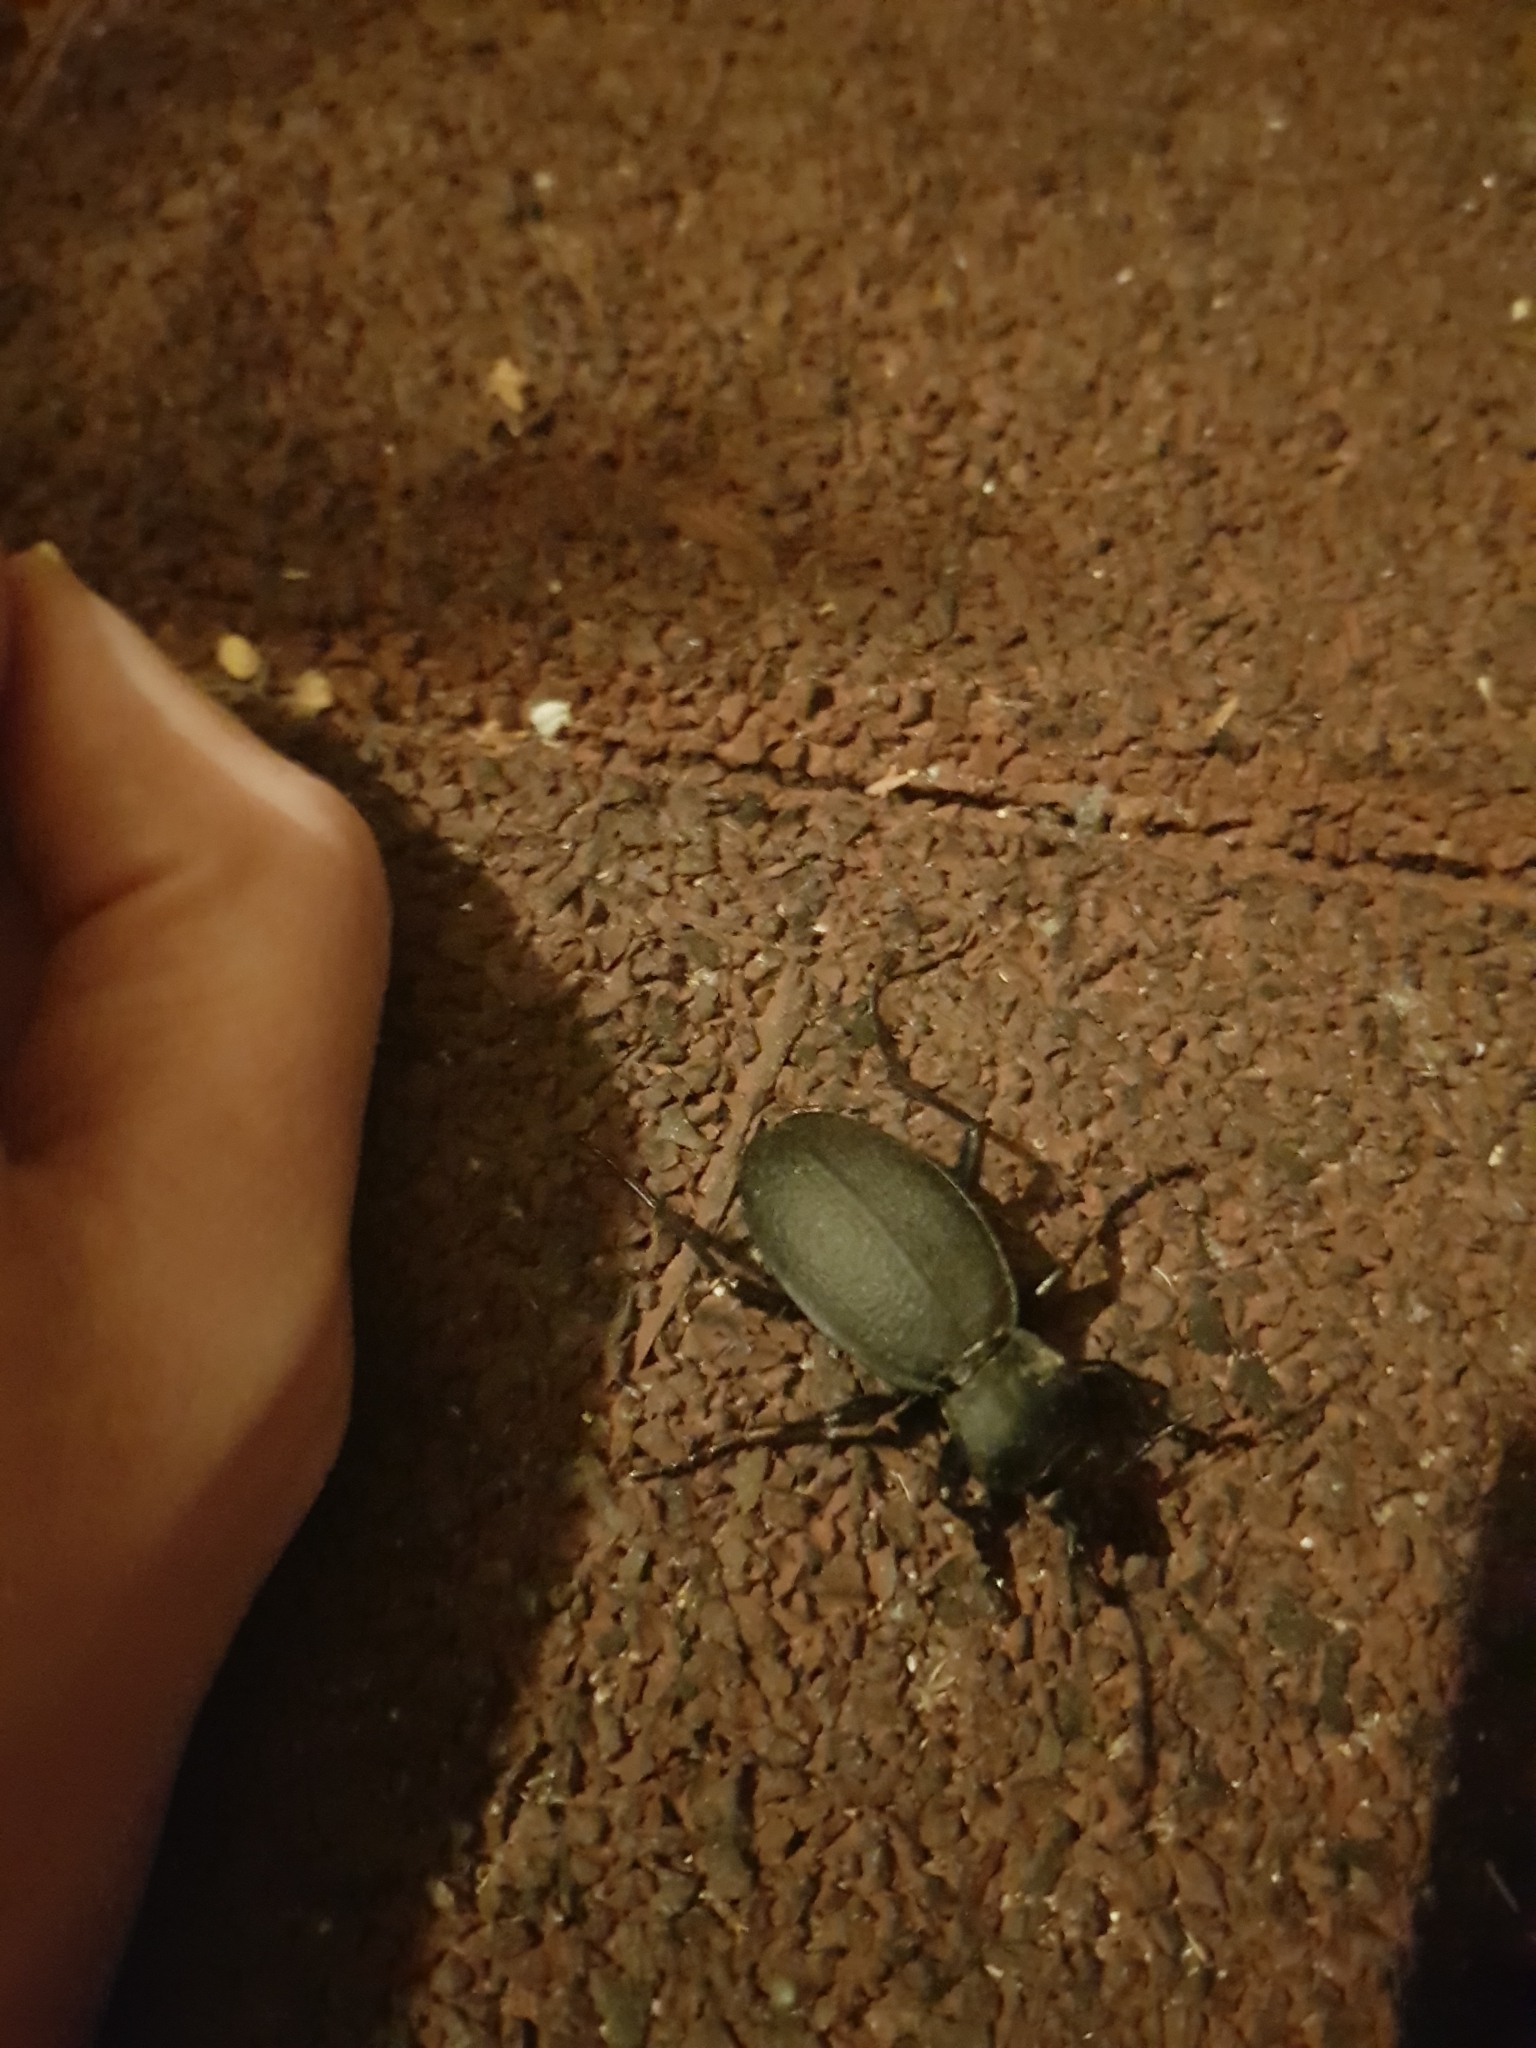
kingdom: Animalia
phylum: Arthropoda
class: Insecta
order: Coleoptera
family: Carabidae
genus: Carabus
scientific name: Carabus coriaceus
